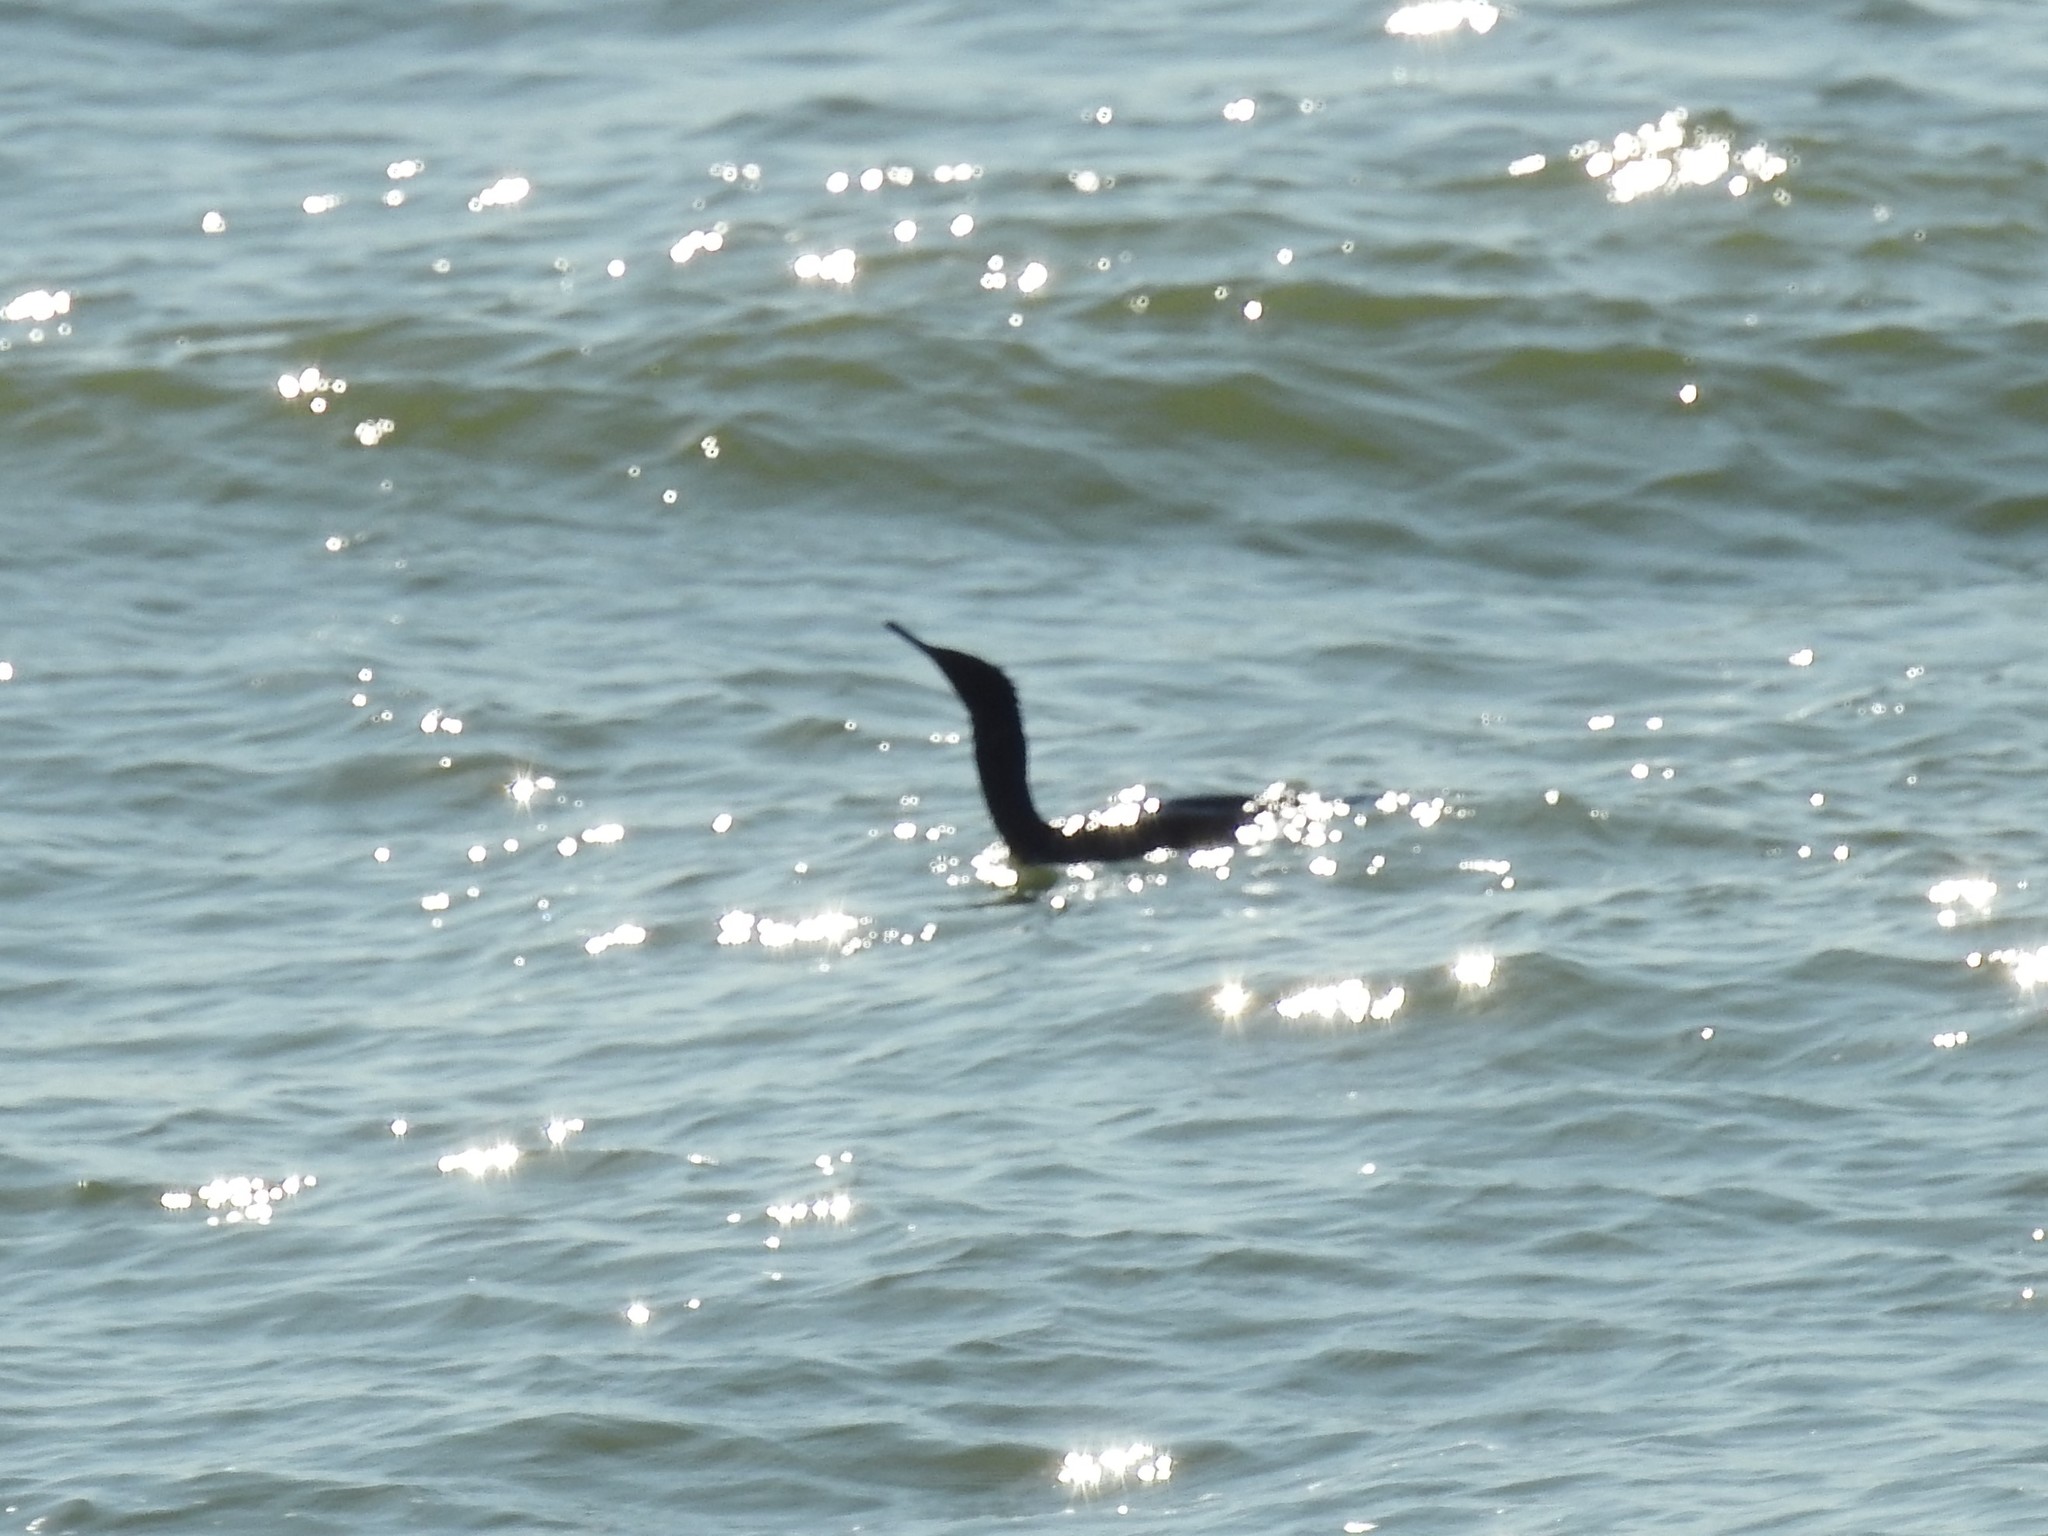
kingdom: Animalia
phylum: Chordata
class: Aves
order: Suliformes
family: Phalacrocoracidae
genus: Phalacrocorax
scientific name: Phalacrocorax pelagicus
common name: Pelagic cormorant
